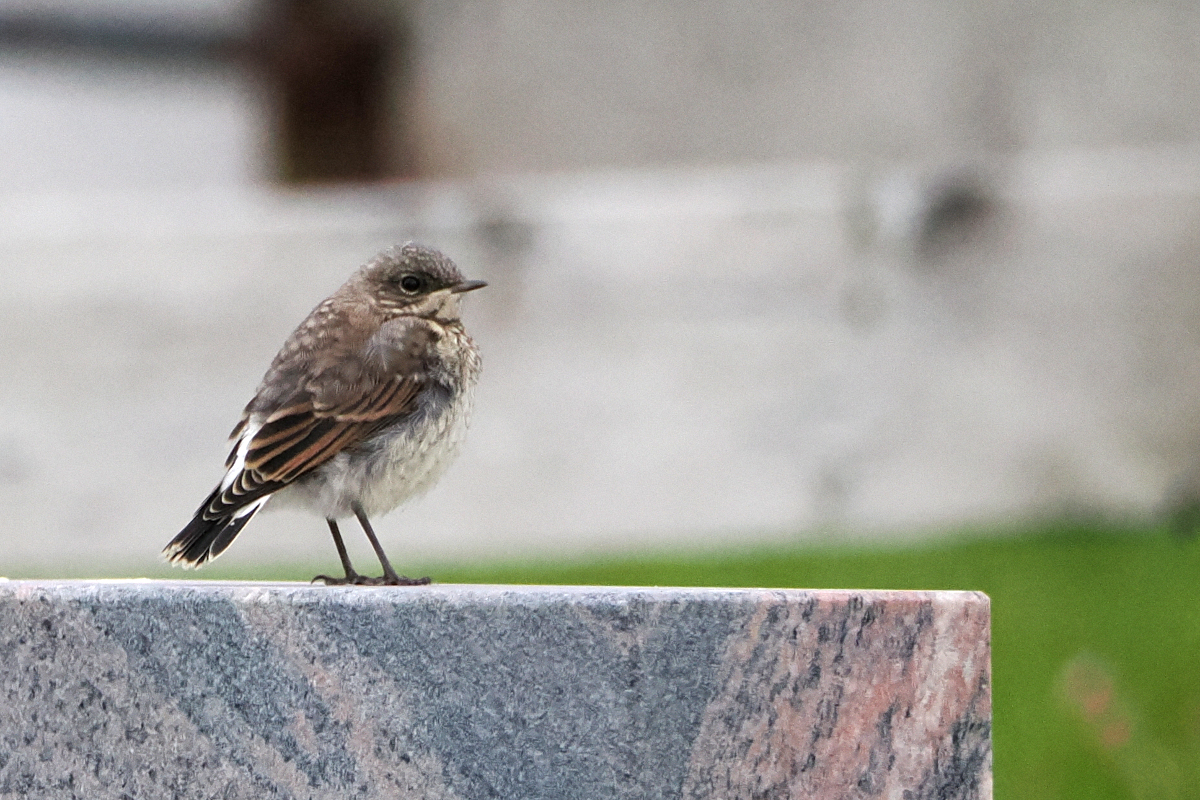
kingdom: Animalia
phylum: Chordata
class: Aves
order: Passeriformes
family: Muscicapidae
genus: Oenanthe
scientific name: Oenanthe oenanthe
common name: Northern wheatear
